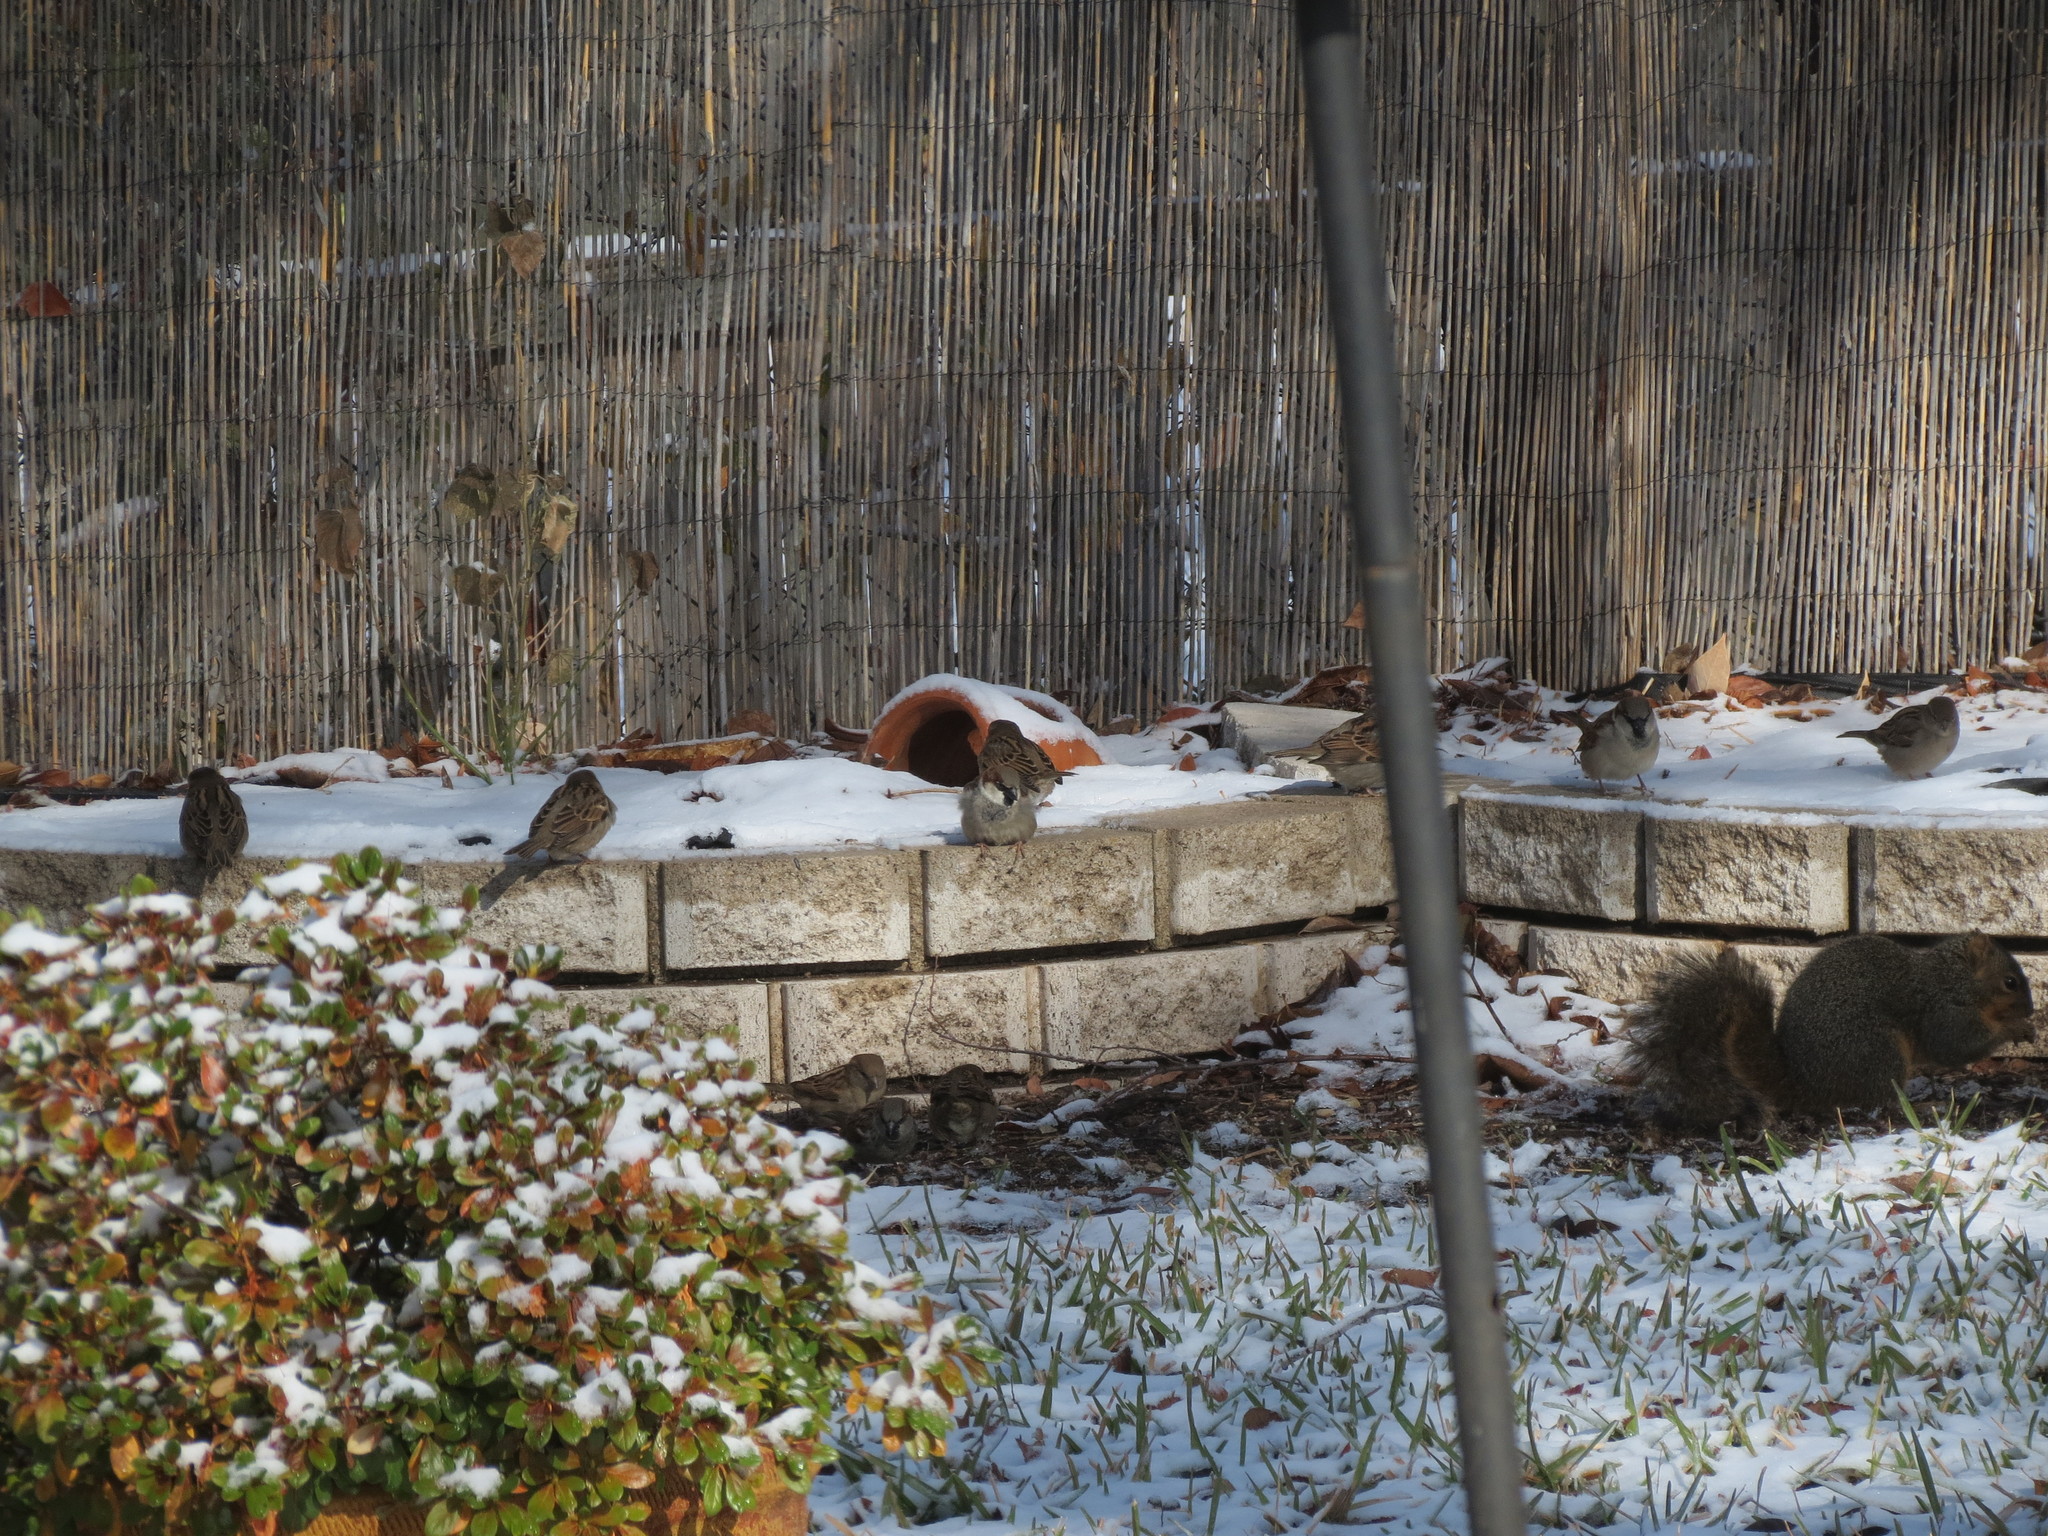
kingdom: Animalia
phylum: Chordata
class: Aves
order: Passeriformes
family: Passeridae
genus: Passer
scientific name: Passer domesticus
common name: House sparrow
